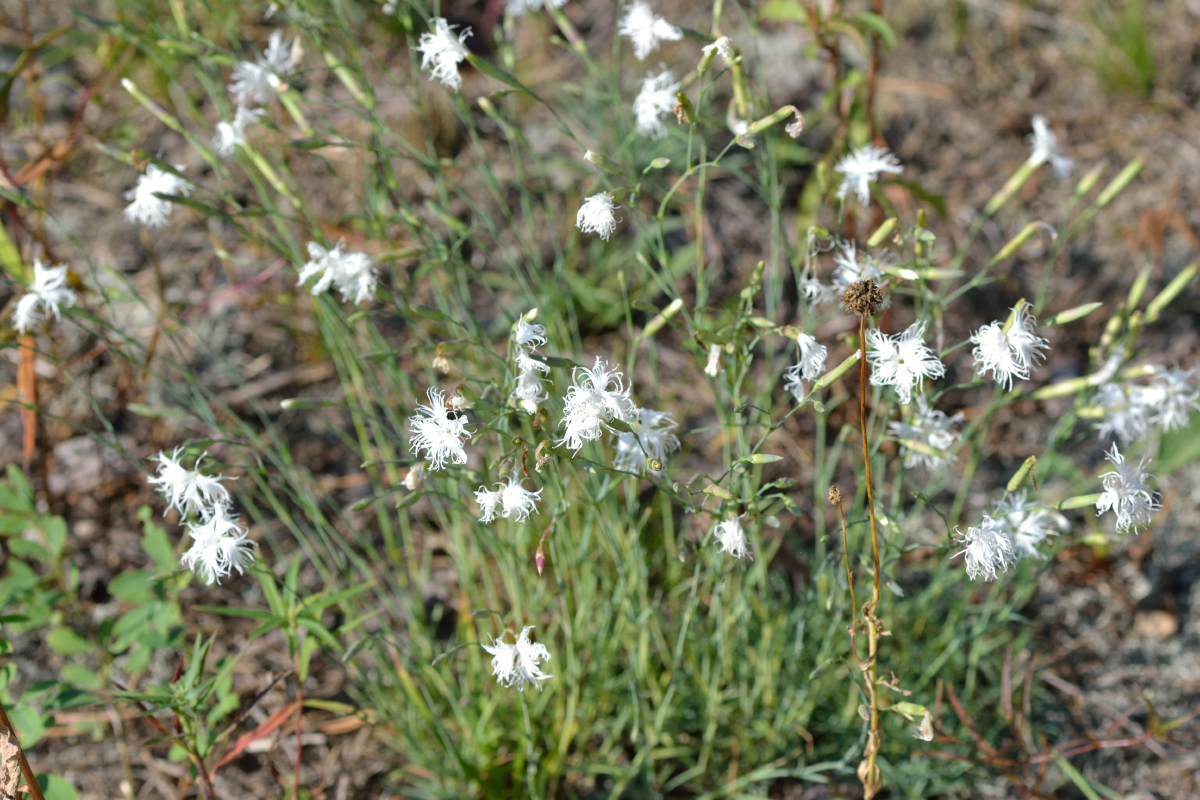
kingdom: Plantae
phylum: Tracheophyta
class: Magnoliopsida
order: Caryophyllales
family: Caryophyllaceae
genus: Dianthus
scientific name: Dianthus arenarius
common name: Stone pink
